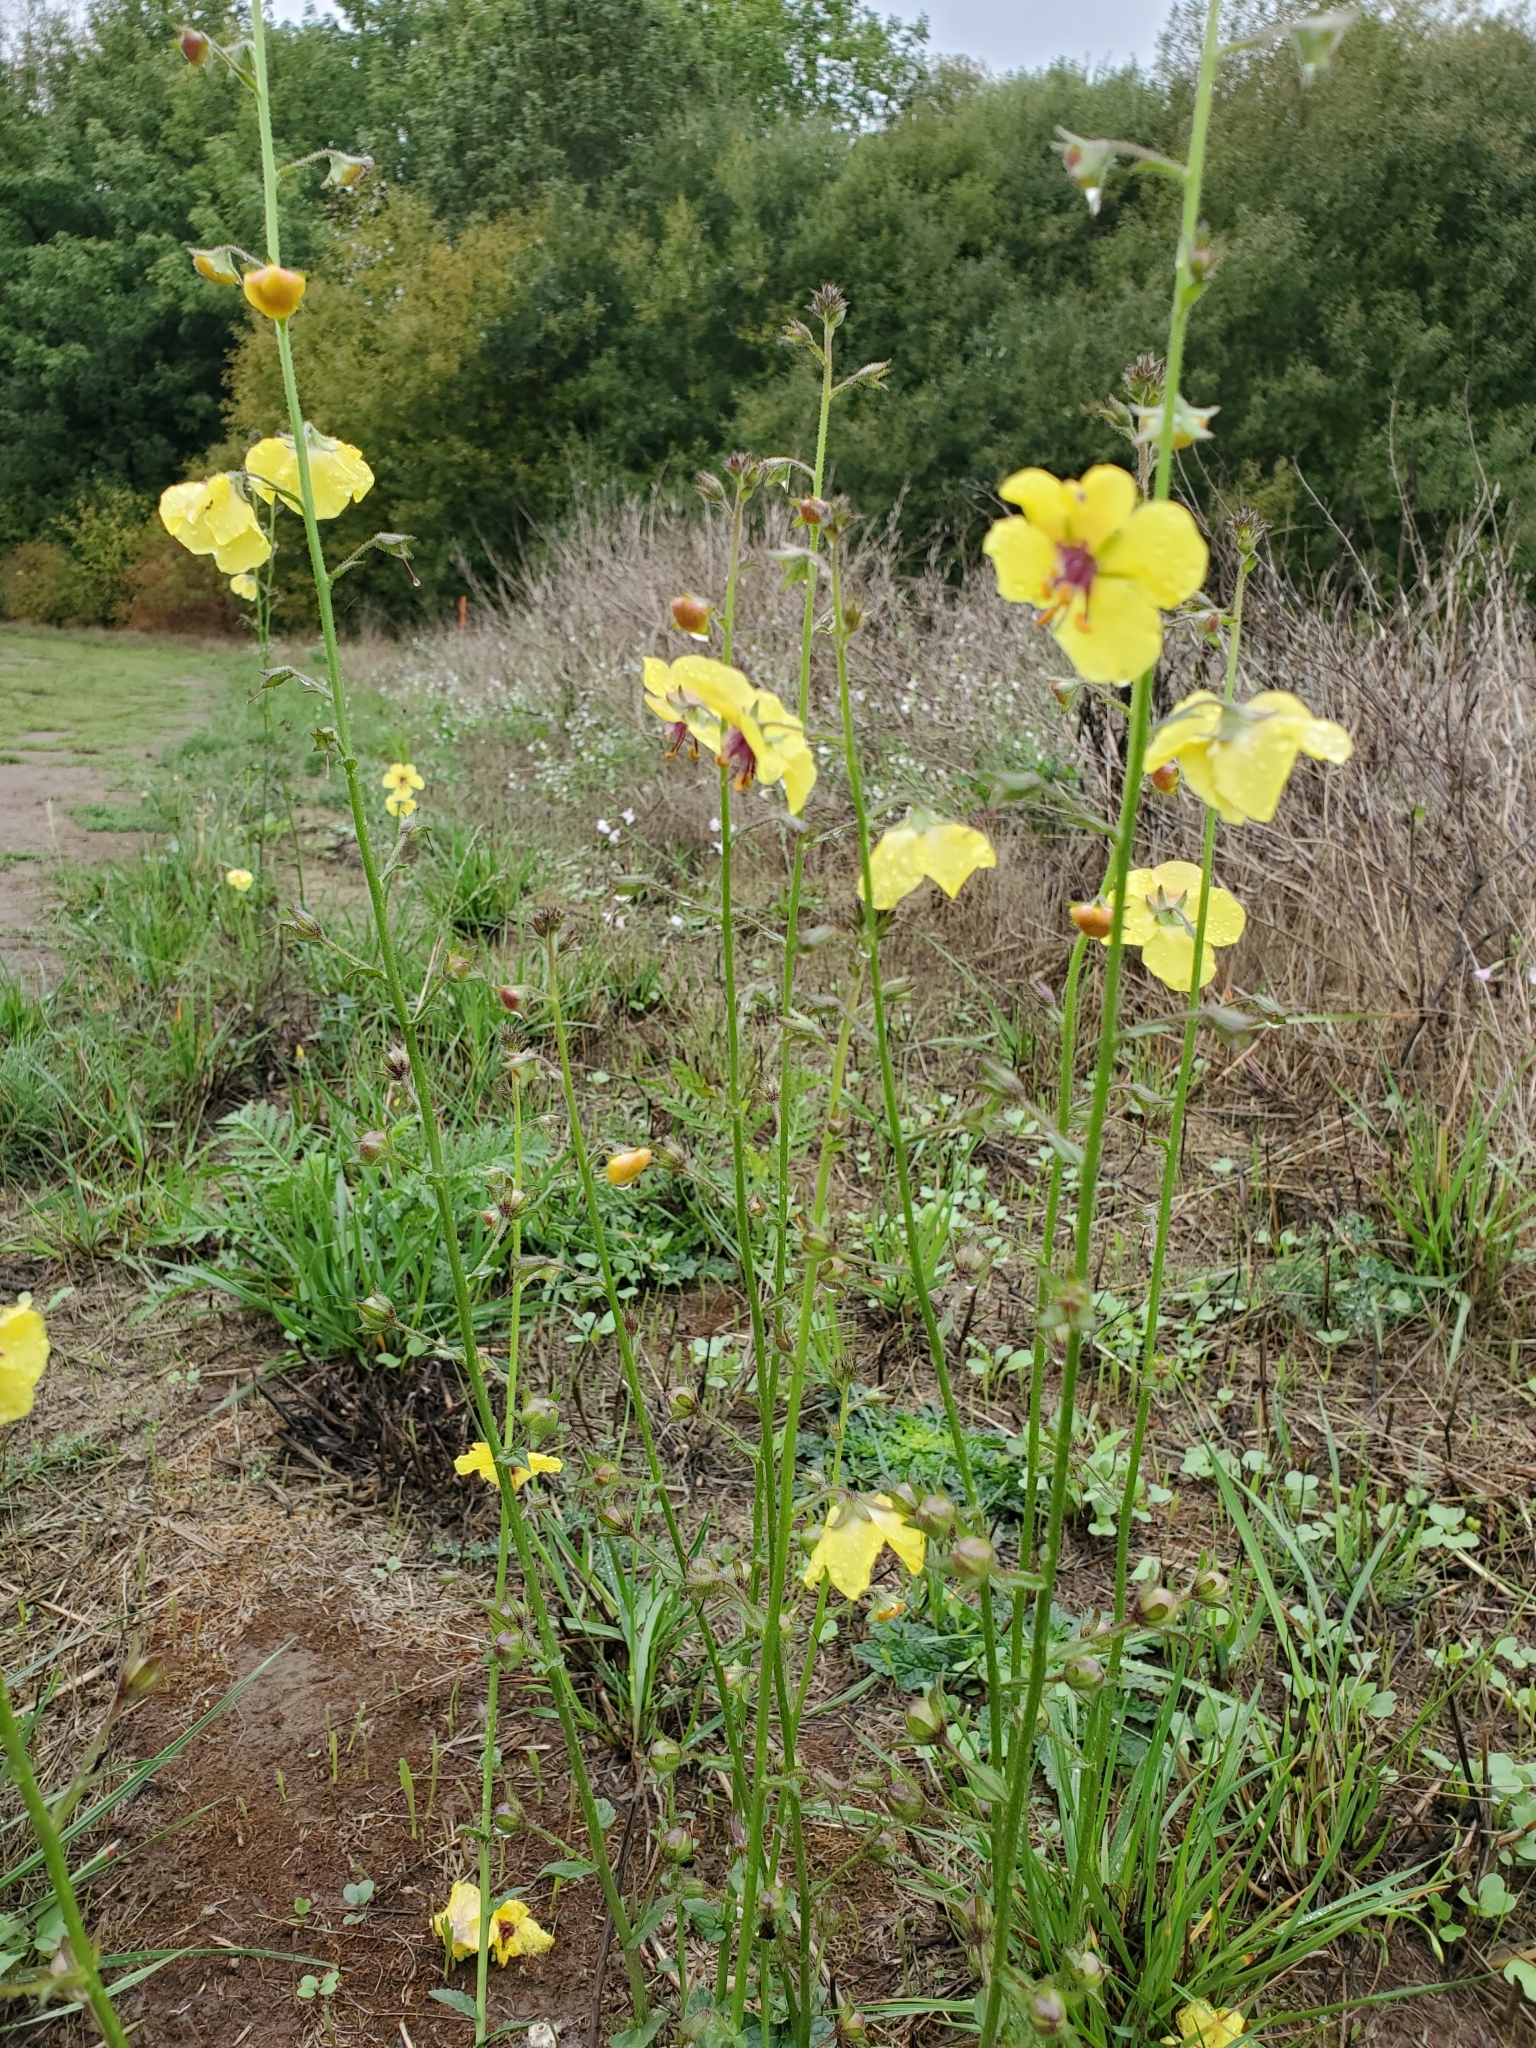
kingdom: Plantae
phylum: Tracheophyta
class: Magnoliopsida
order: Lamiales
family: Scrophulariaceae
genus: Verbascum
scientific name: Verbascum blattaria
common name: Moth mullein
